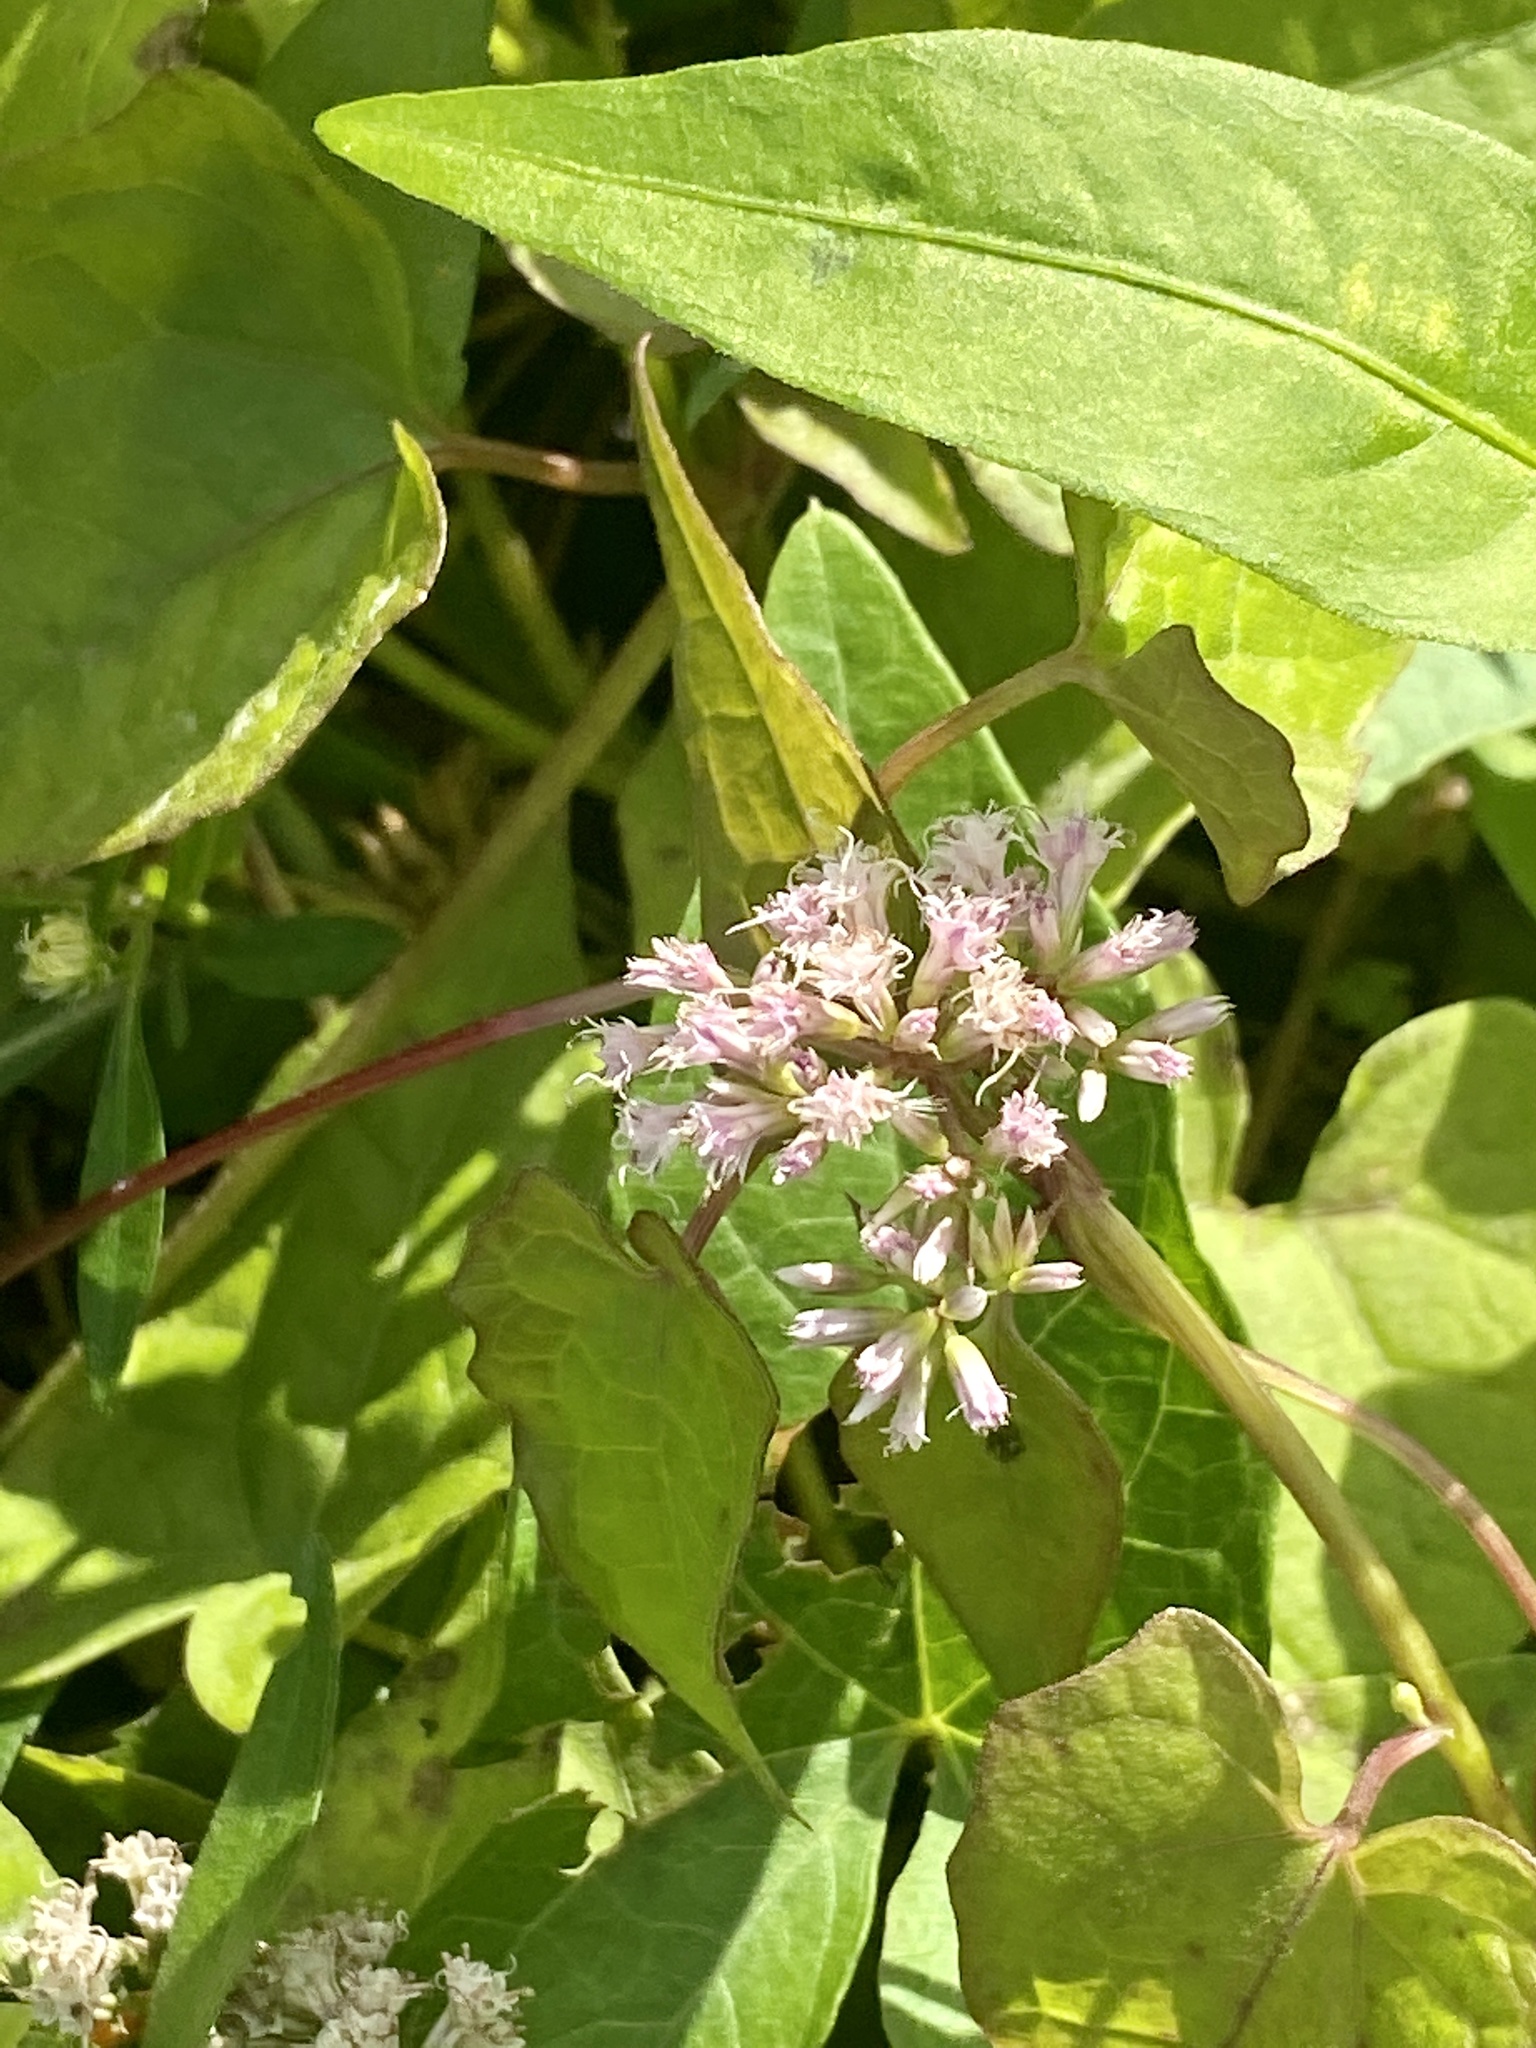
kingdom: Plantae
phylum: Tracheophyta
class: Magnoliopsida
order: Asterales
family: Asteraceae
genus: Mikania
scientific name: Mikania scandens
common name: Climbing hempvine
